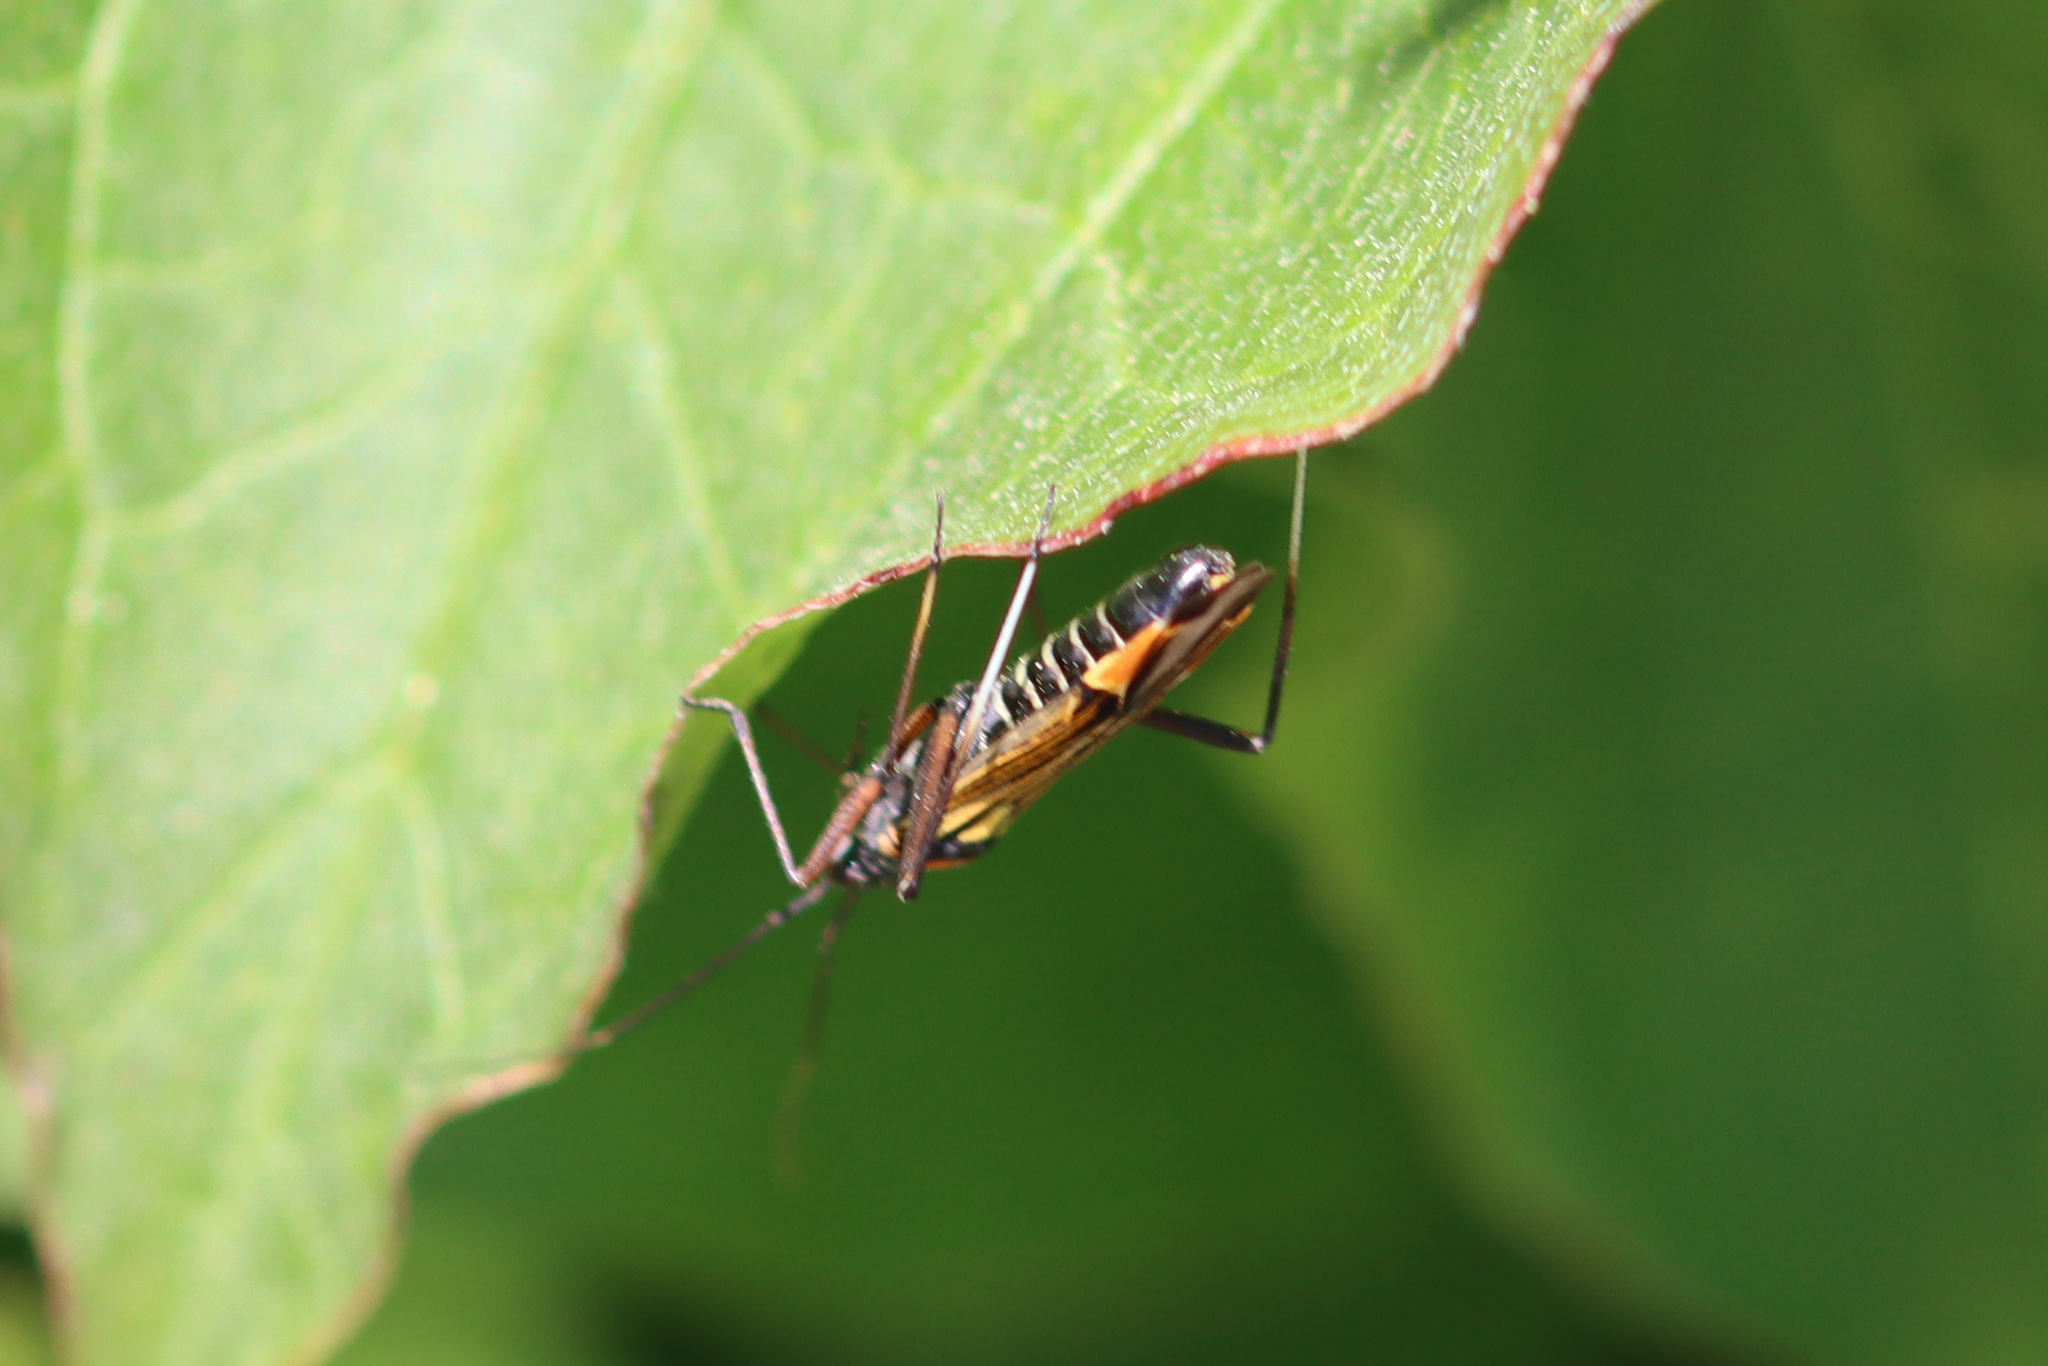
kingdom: Animalia
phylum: Arthropoda
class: Insecta
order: Hemiptera
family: Miridae
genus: Miris
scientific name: Miris striatus
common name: Fine streaked bugkin
